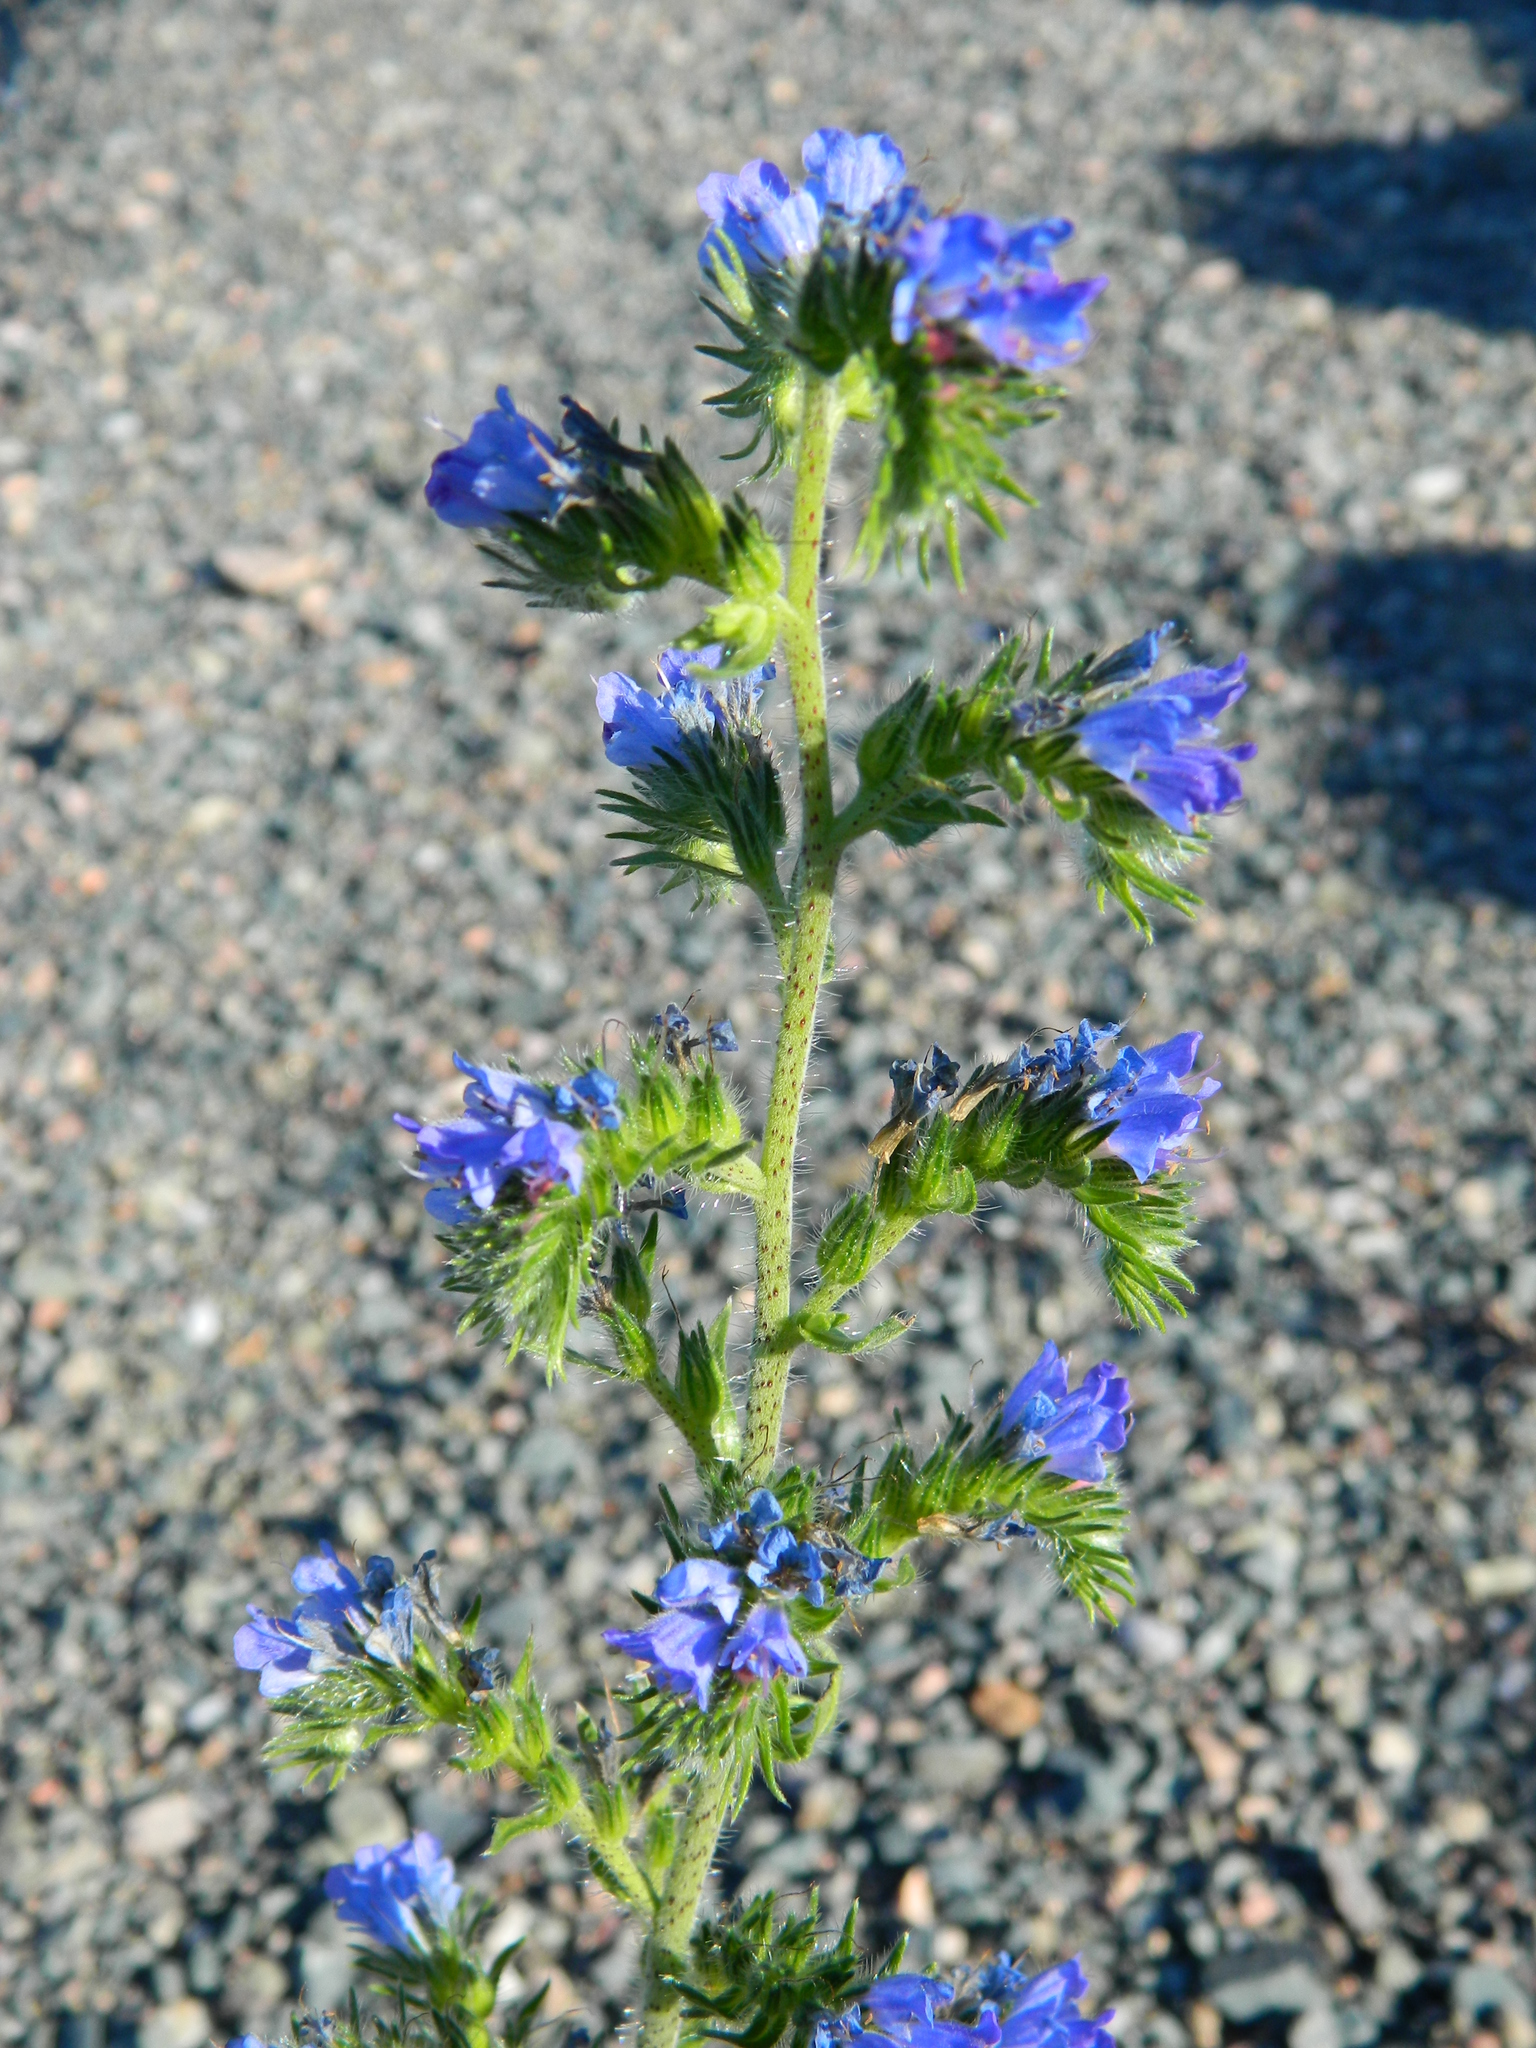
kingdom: Plantae
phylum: Tracheophyta
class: Magnoliopsida
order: Boraginales
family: Boraginaceae
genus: Echium
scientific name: Echium vulgare
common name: Common viper's bugloss
